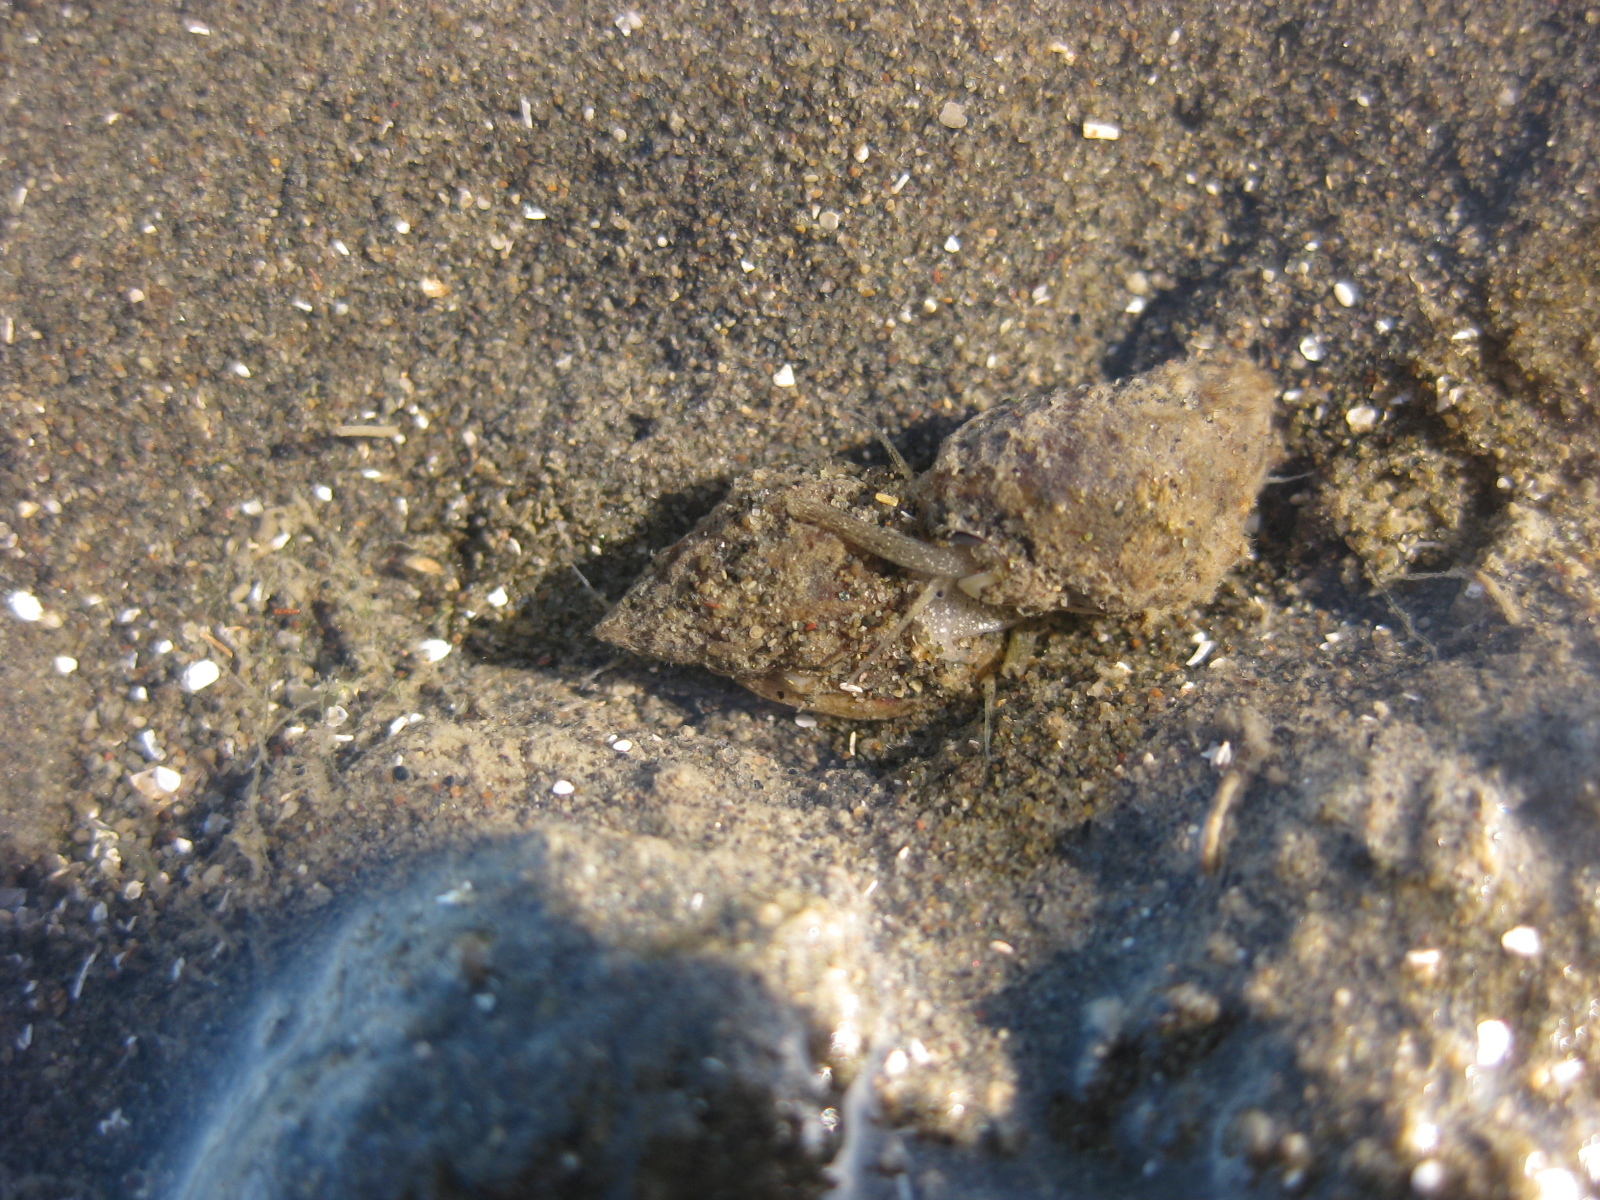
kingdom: Animalia
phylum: Mollusca
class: Gastropoda
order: Neogastropoda
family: Nassariidae
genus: Tritia
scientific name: Tritia burchardi
